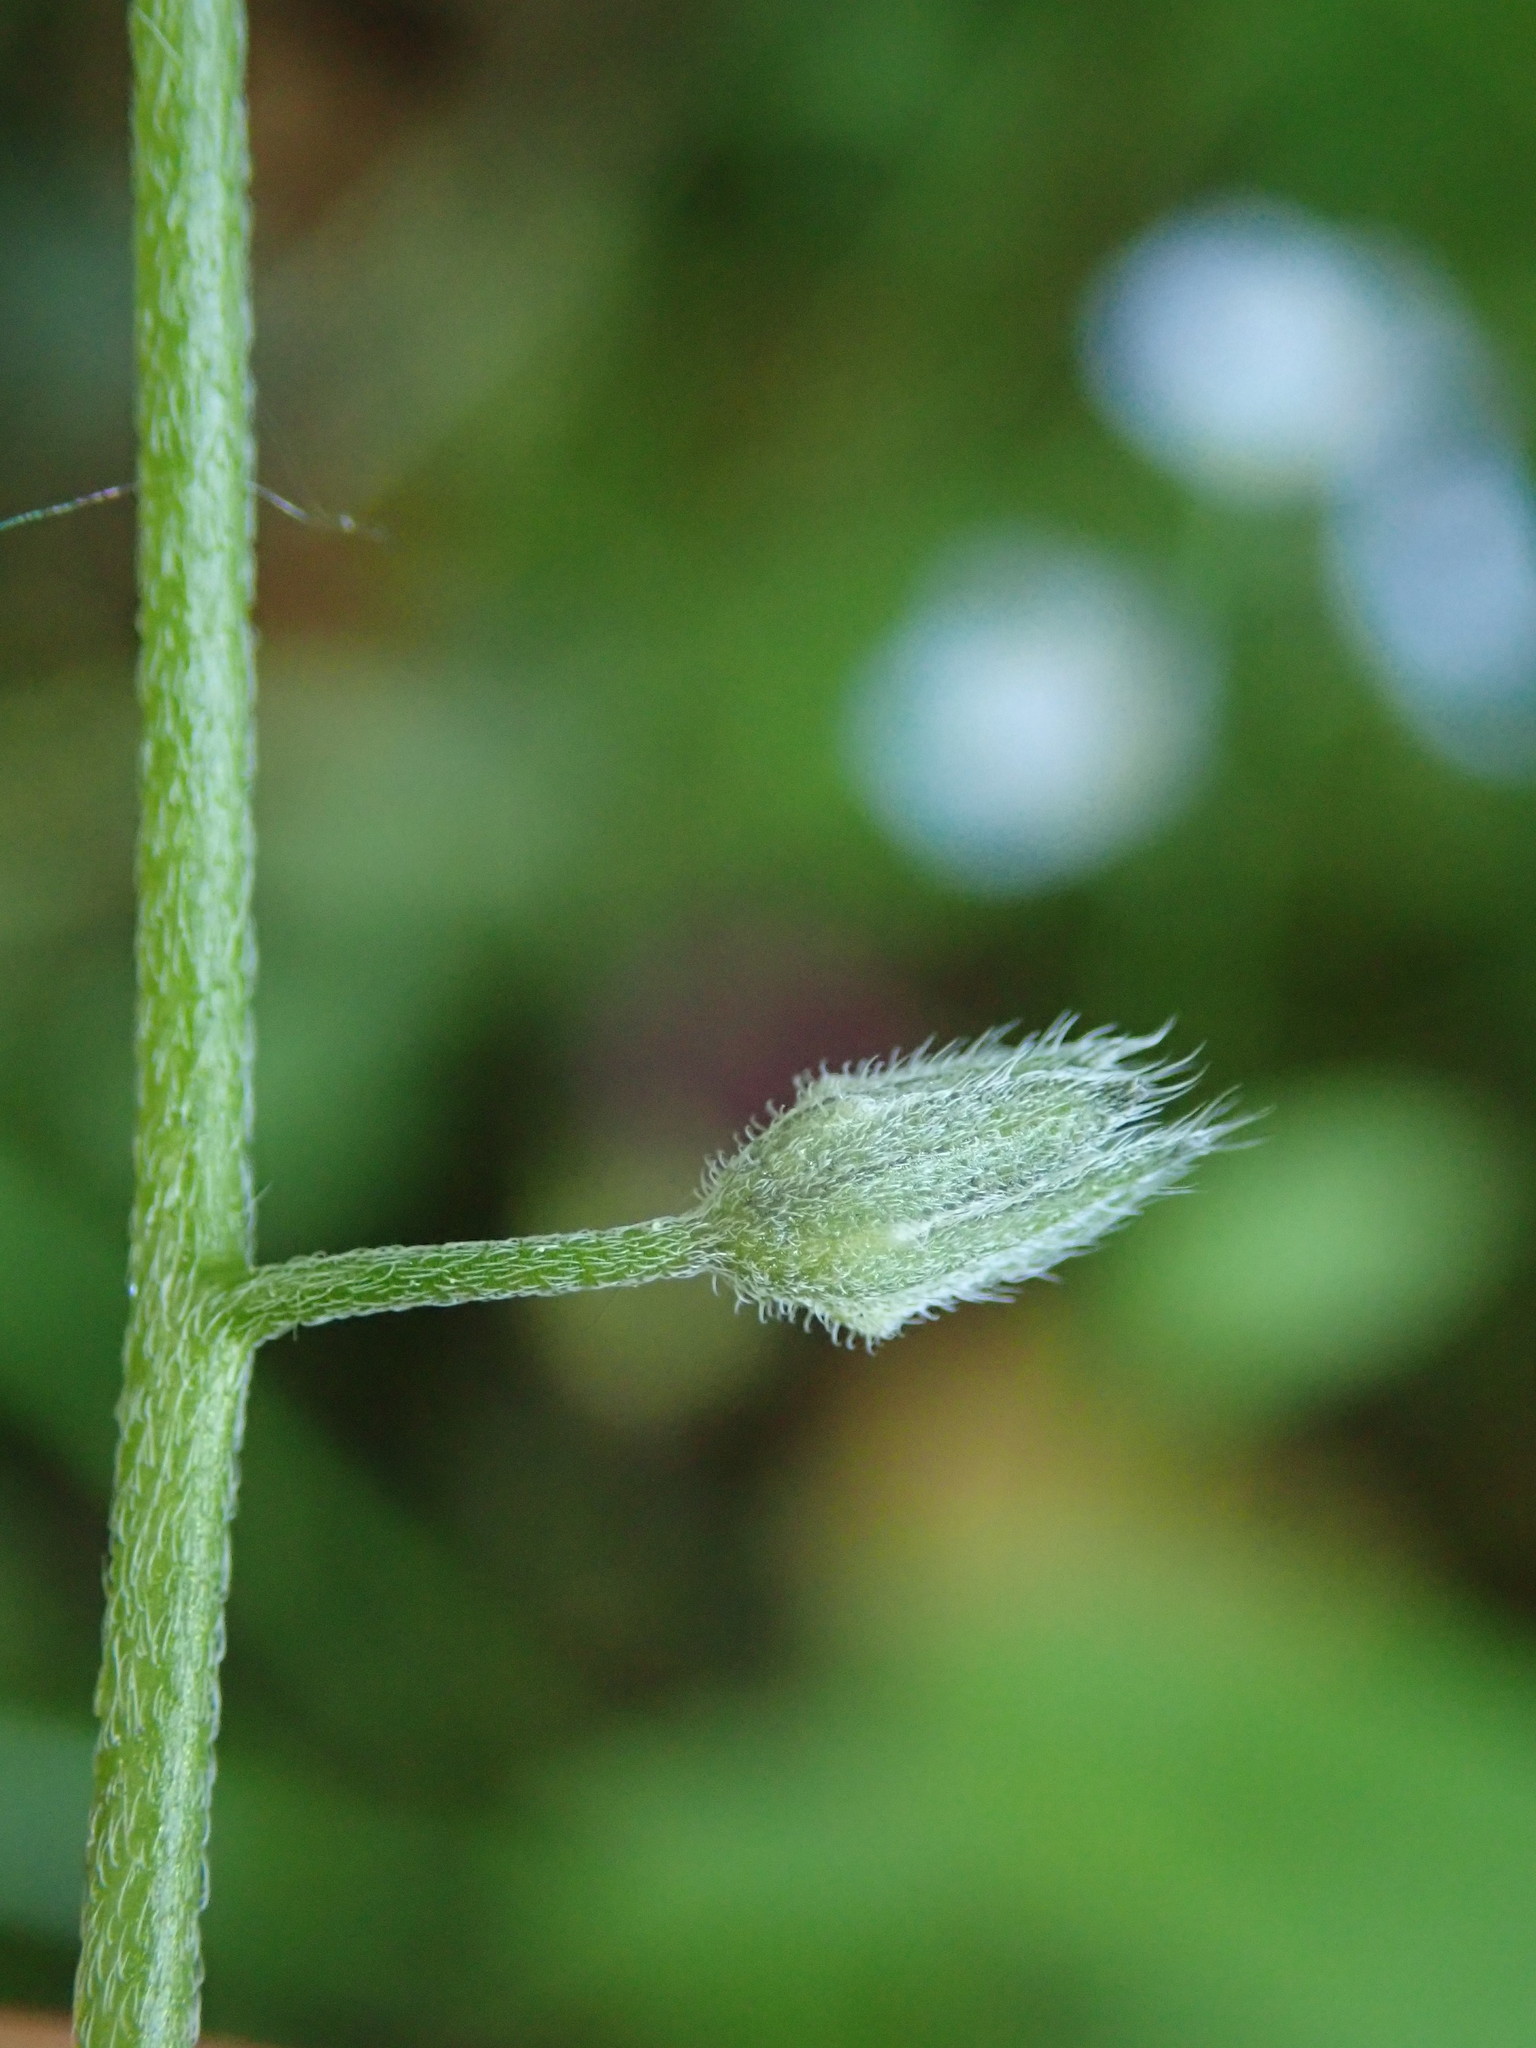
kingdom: Plantae
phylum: Tracheophyta
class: Magnoliopsida
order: Boraginales
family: Boraginaceae
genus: Myosotis
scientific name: Myosotis sylvatica
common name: Wood forget-me-not
